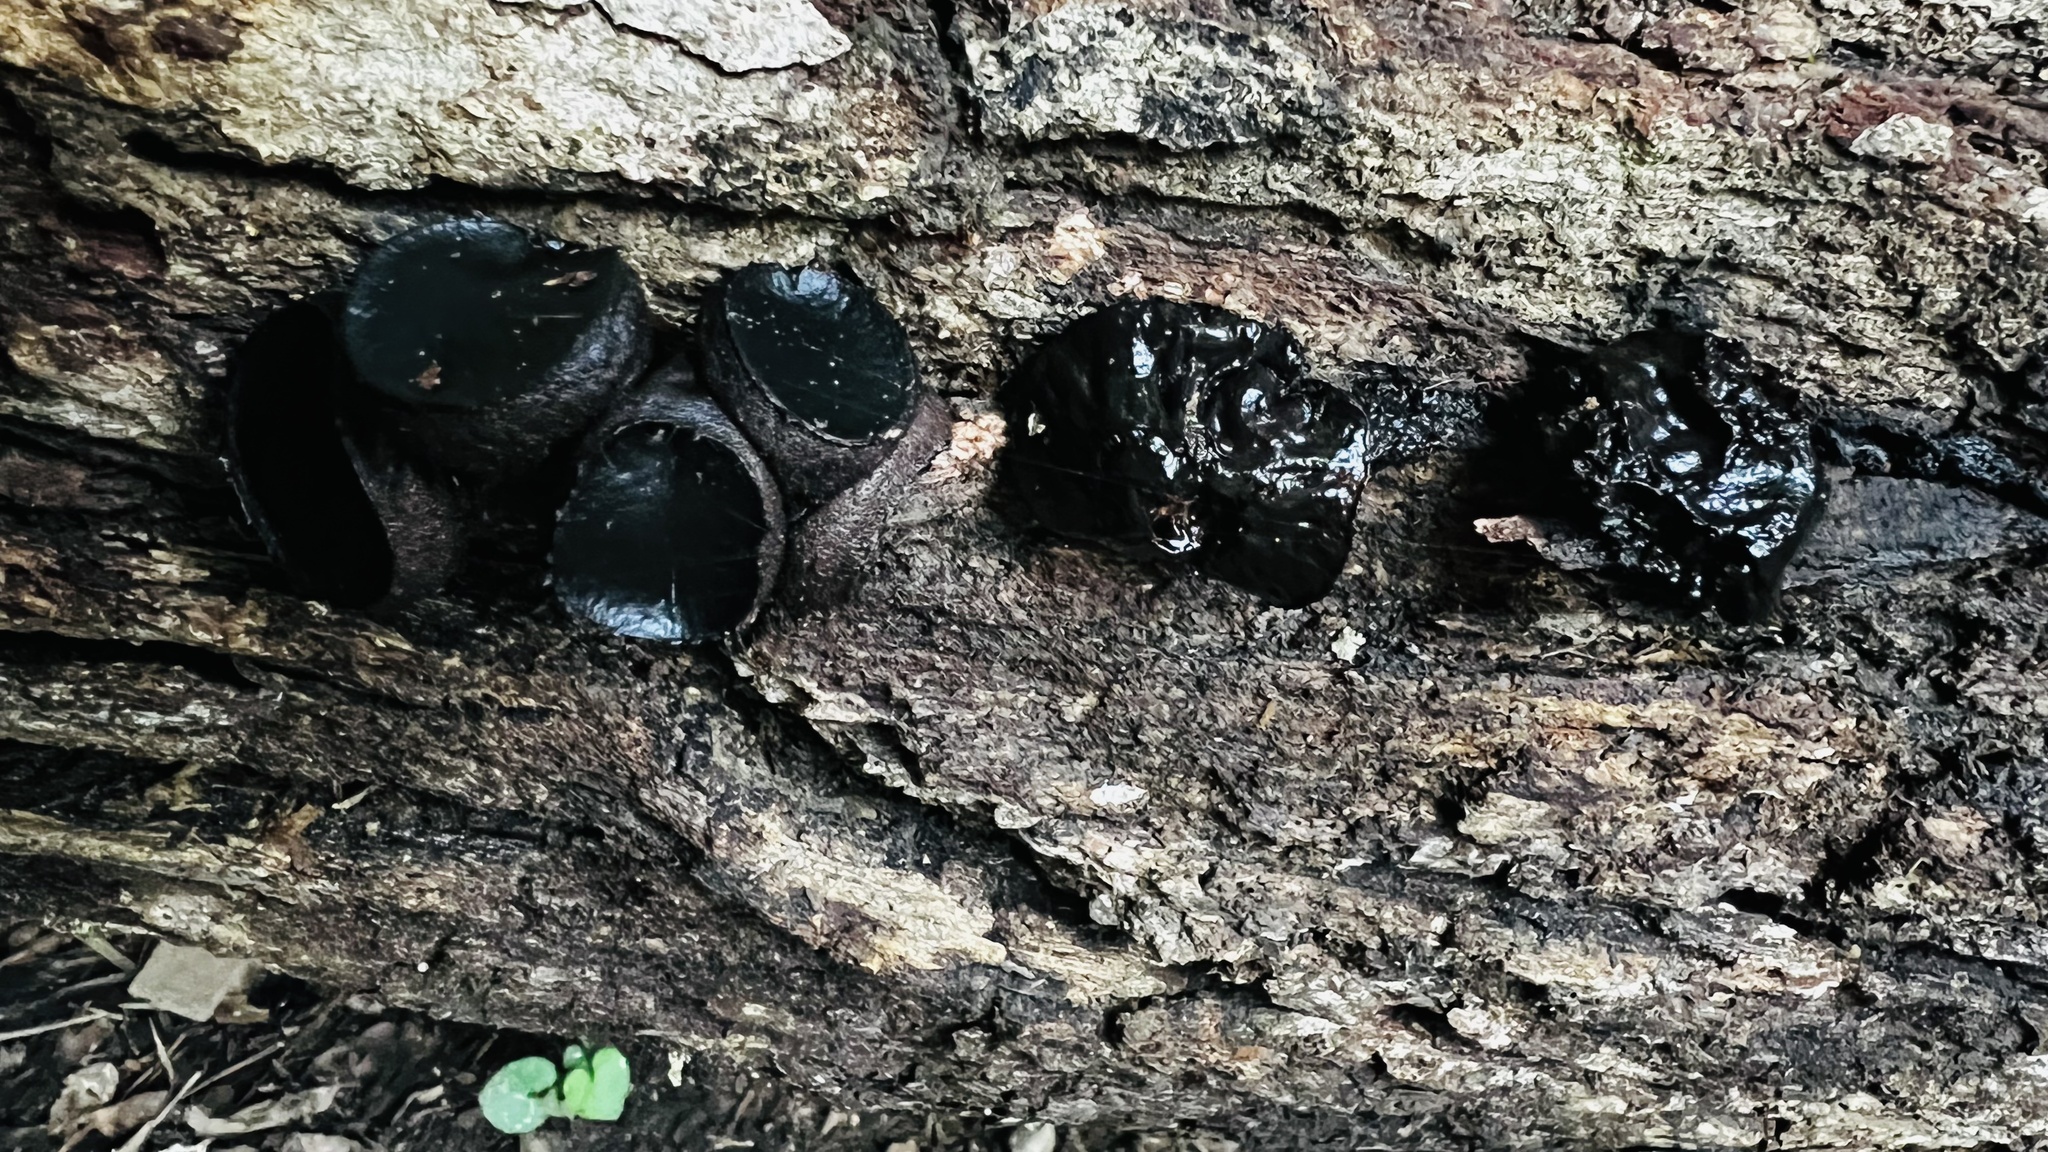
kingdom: Fungi
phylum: Ascomycota
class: Leotiomycetes
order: Phacidiales
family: Phacidiaceae
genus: Bulgaria
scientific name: Bulgaria inquinans
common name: Black bulgar
